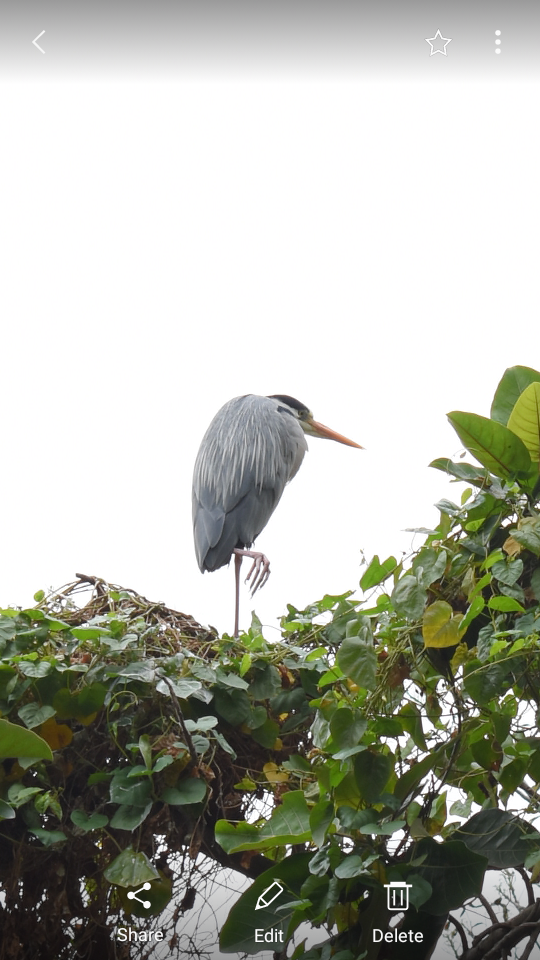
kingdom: Animalia
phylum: Chordata
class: Aves
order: Pelecaniformes
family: Ardeidae
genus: Ardea
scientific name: Ardea cinerea
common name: Grey heron
